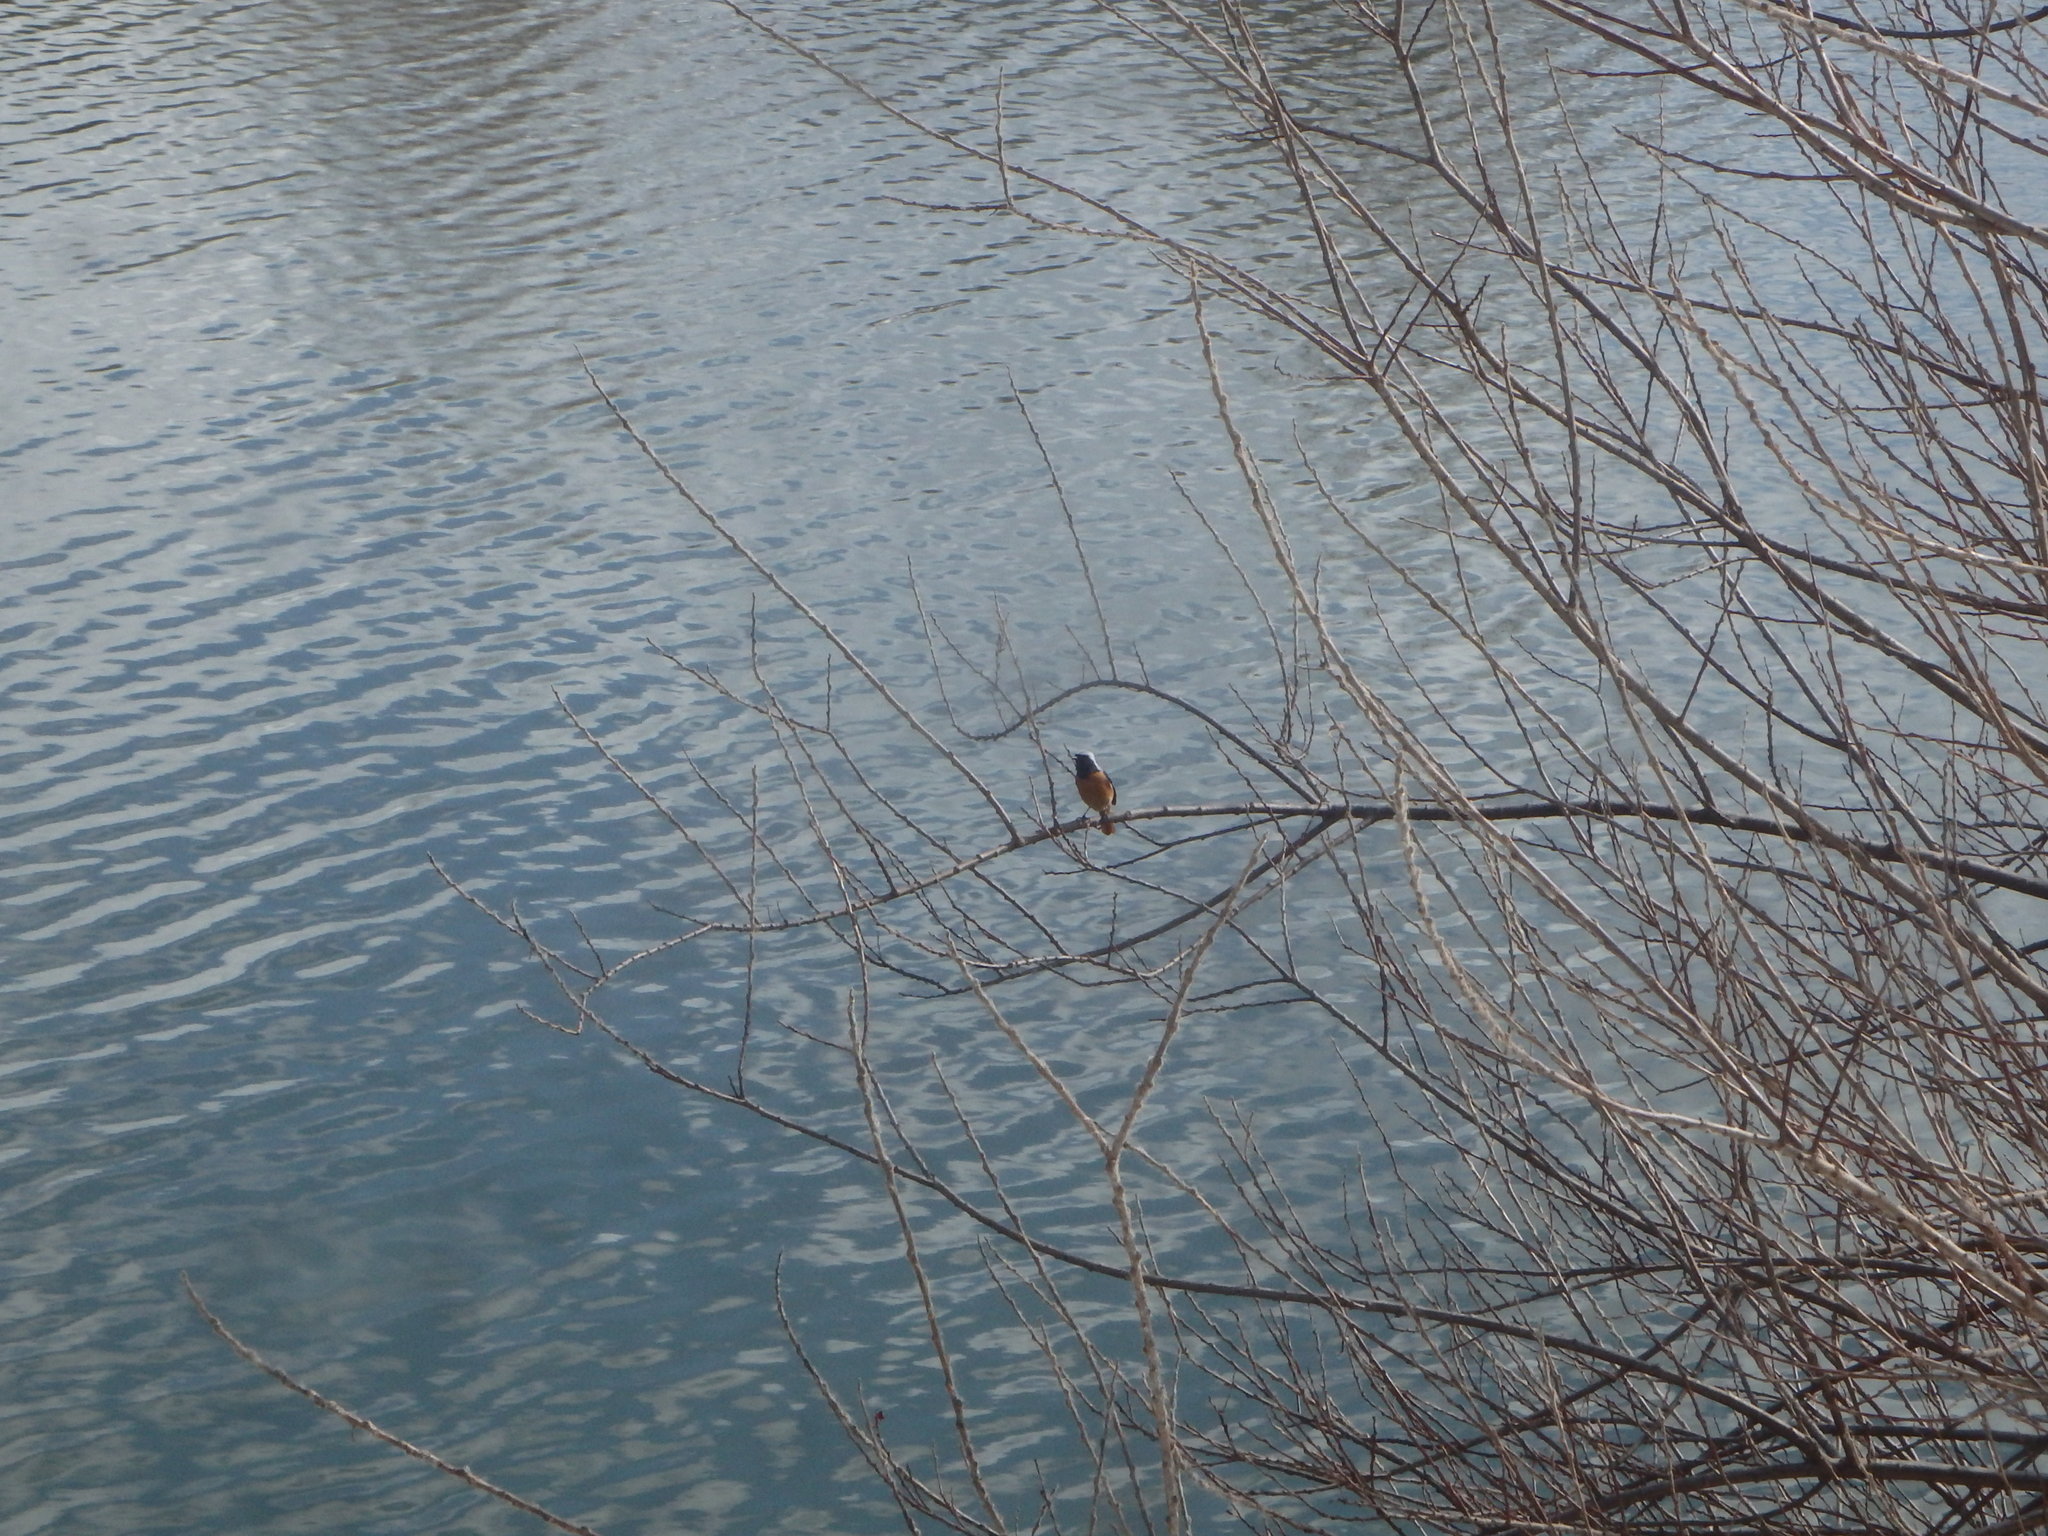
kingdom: Animalia
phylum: Chordata
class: Aves
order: Passeriformes
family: Muscicapidae
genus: Phoenicurus
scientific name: Phoenicurus auroreus
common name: Daurian redstart
